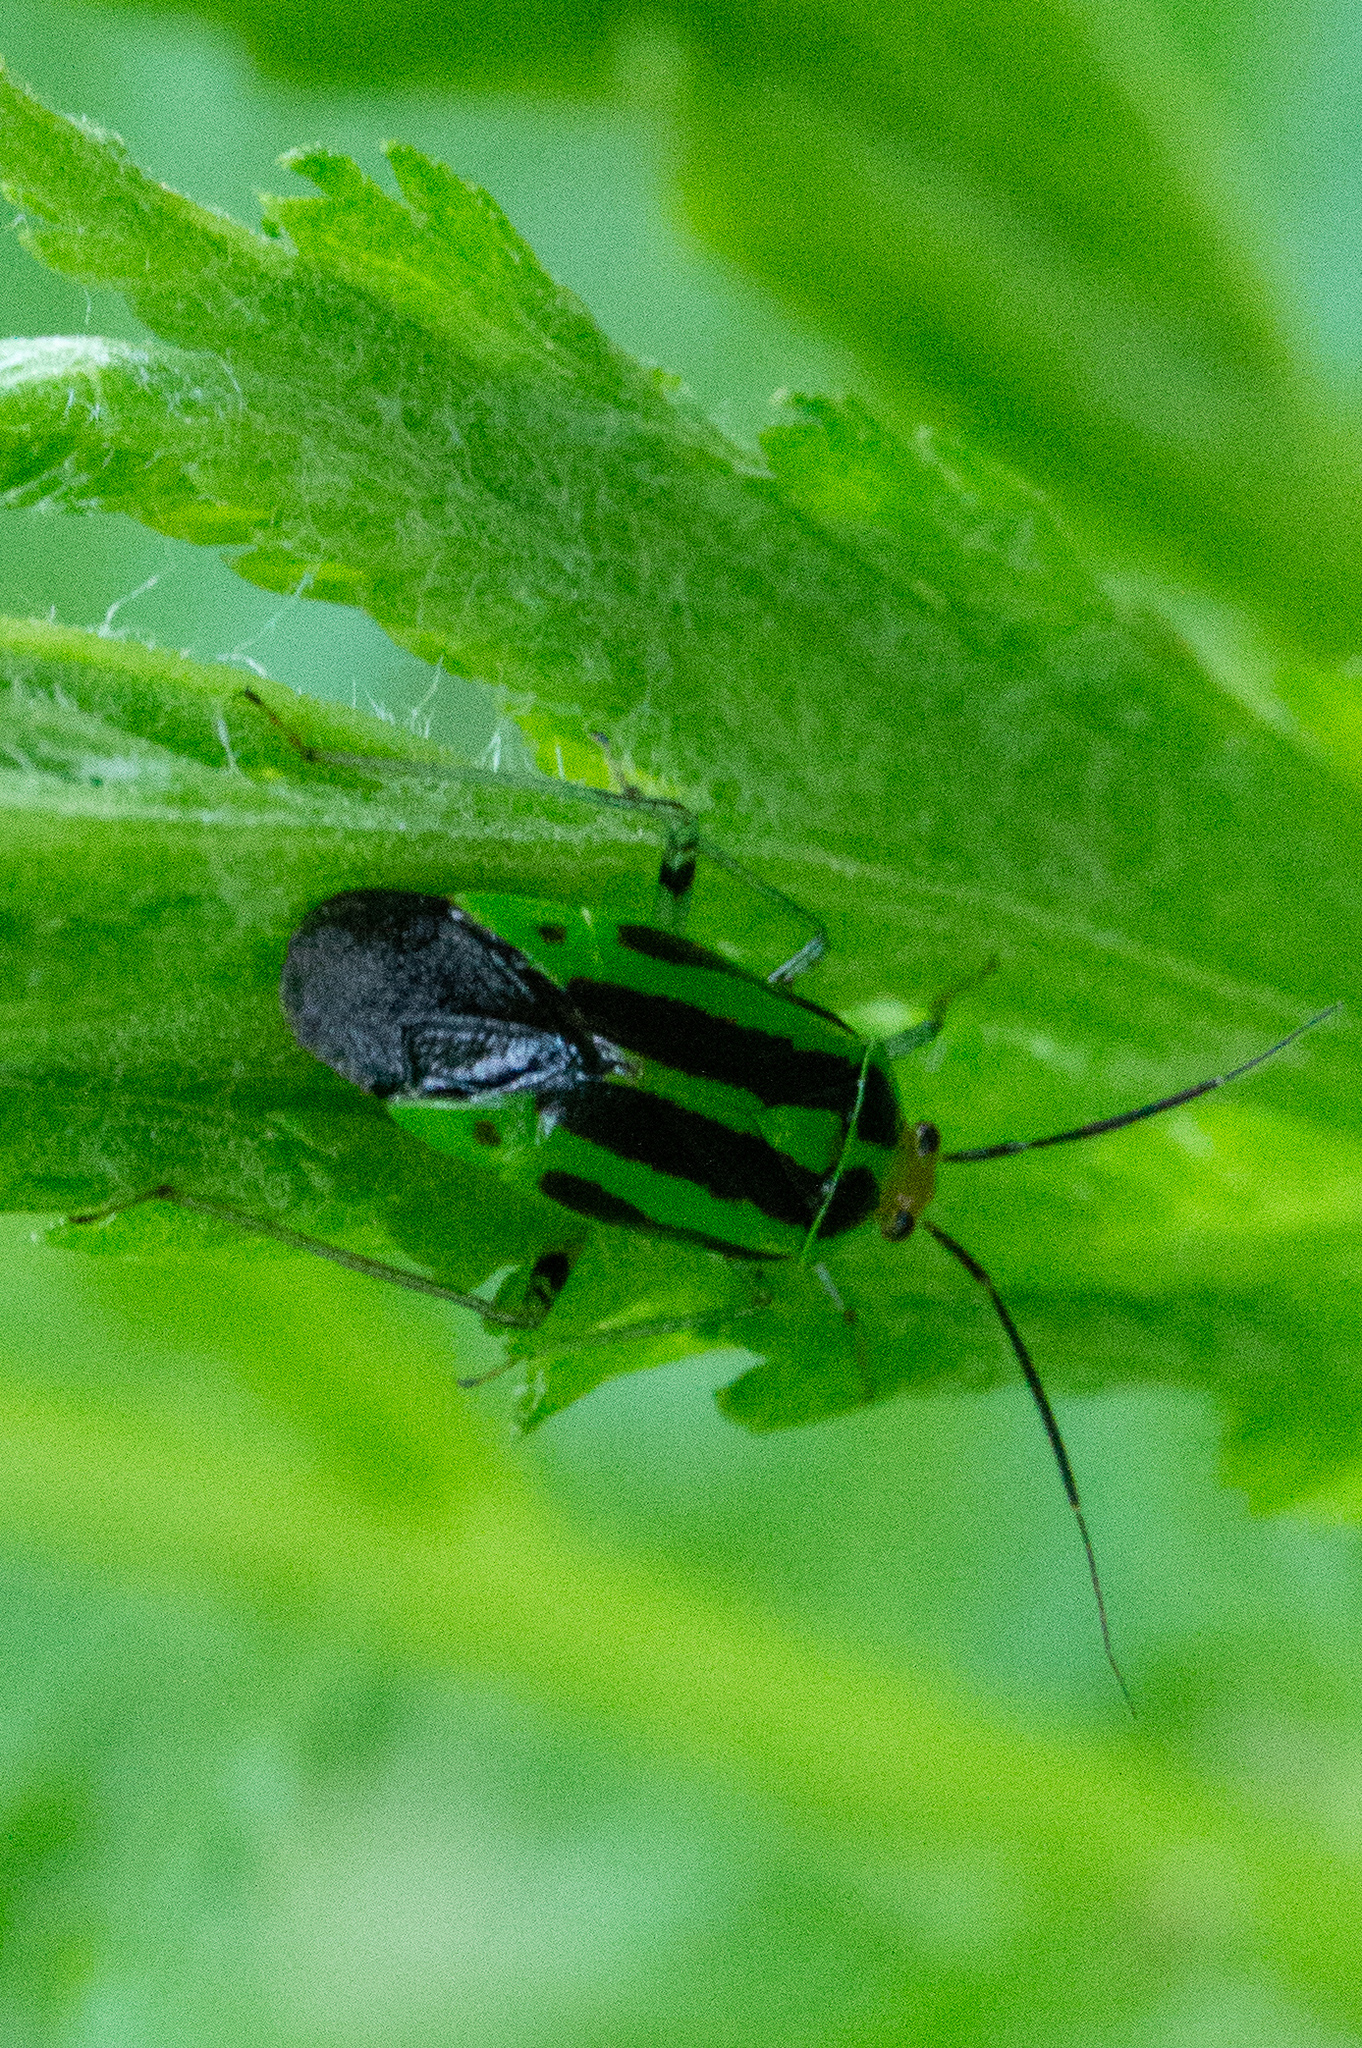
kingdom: Animalia
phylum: Arthropoda
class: Insecta
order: Hemiptera
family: Miridae
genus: Poecilocapsus
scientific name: Poecilocapsus lineatus
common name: Four-lined plant bug
